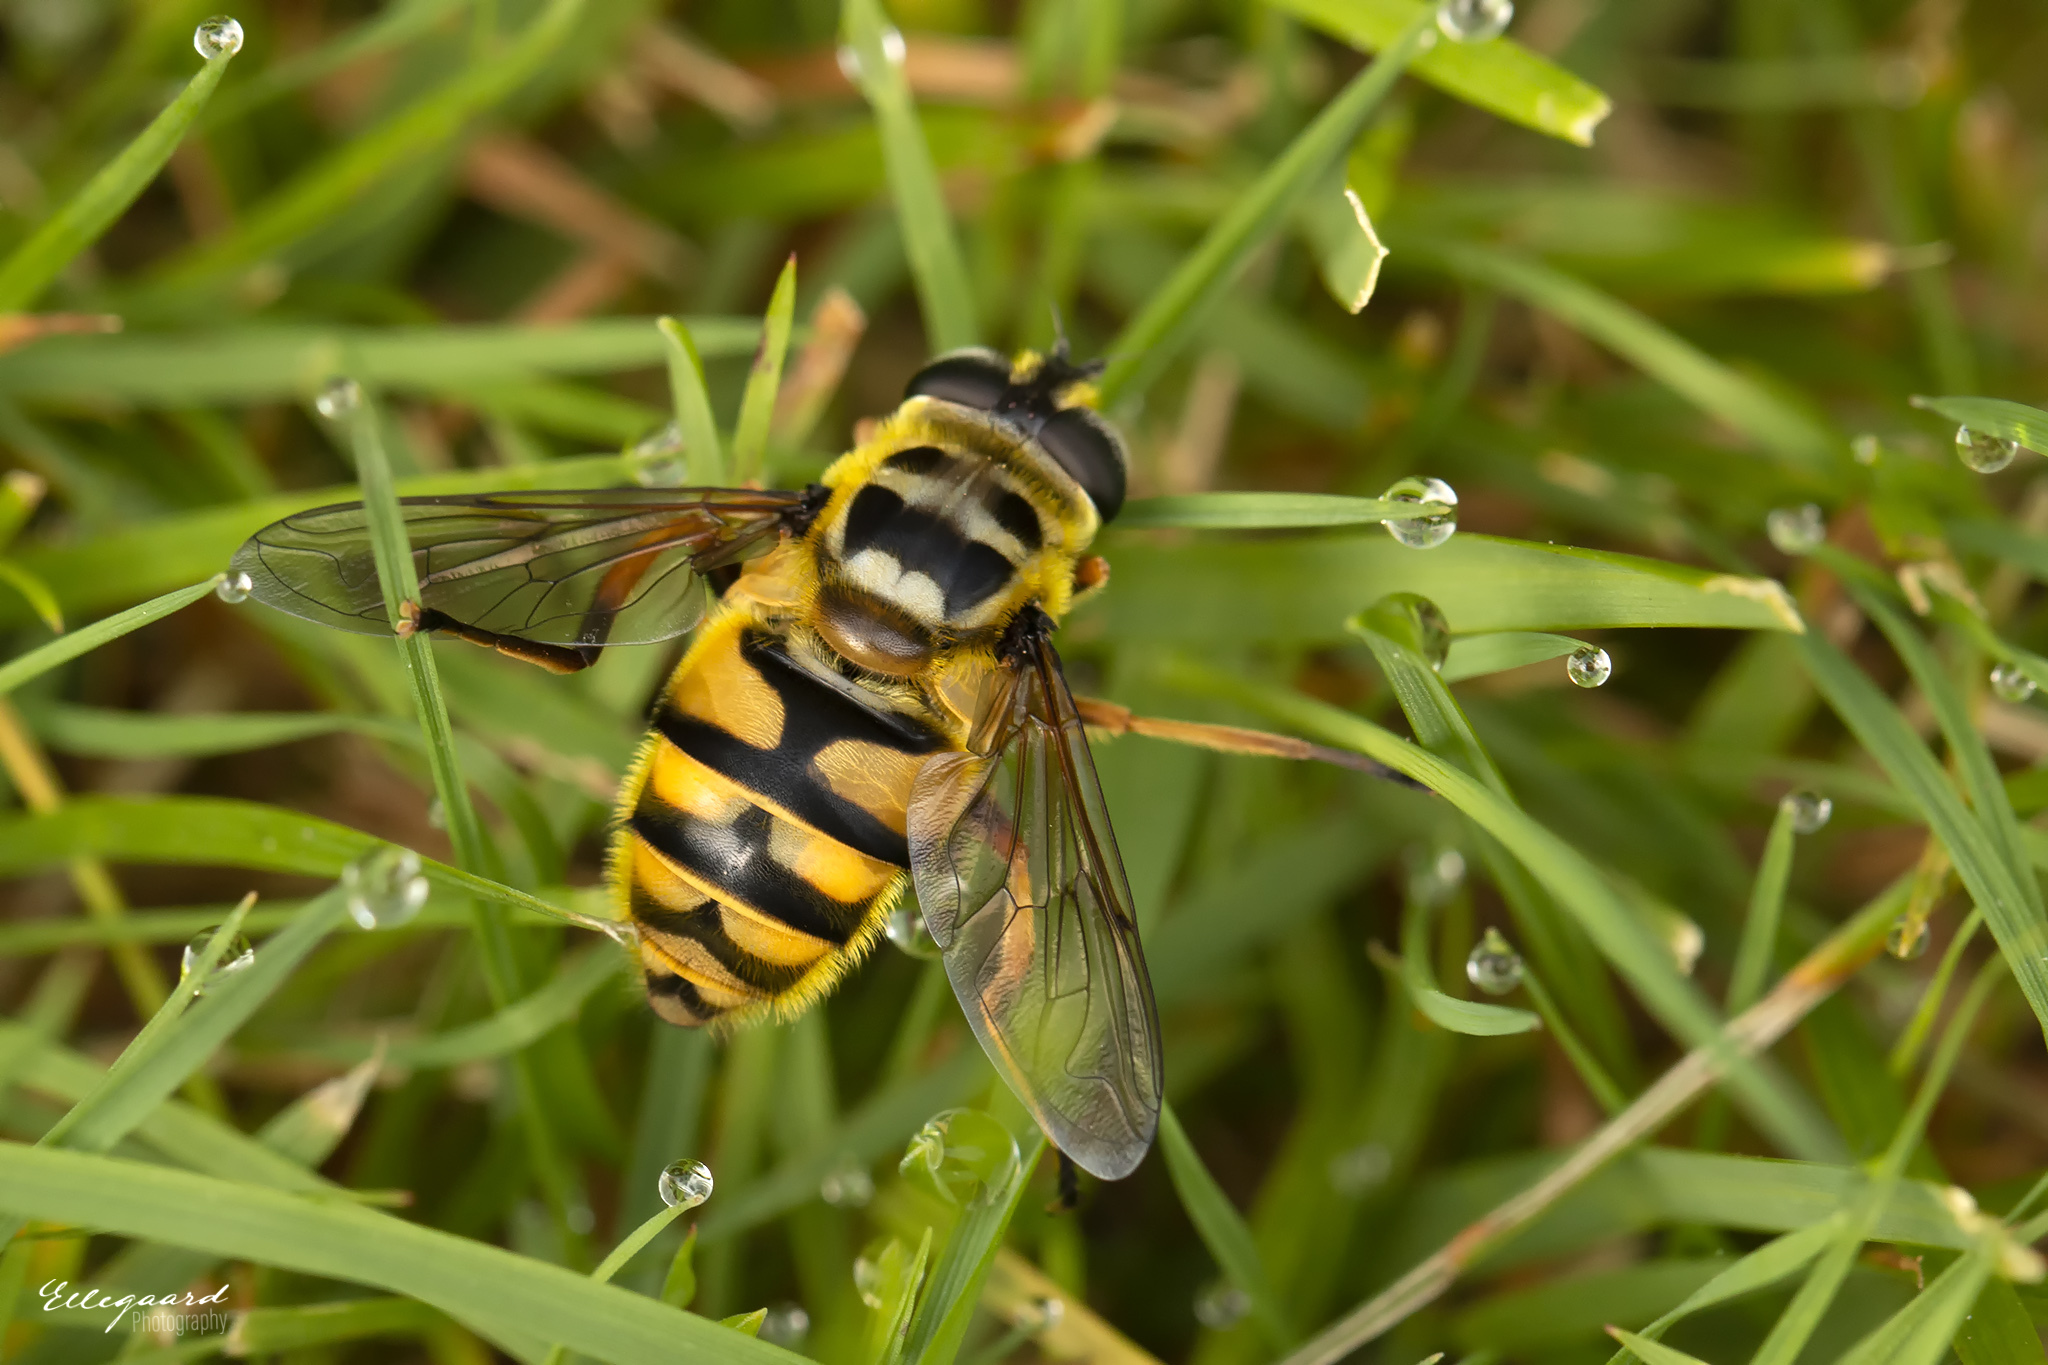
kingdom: Animalia
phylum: Arthropoda
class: Insecta
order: Diptera
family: Syrphidae
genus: Myathropa
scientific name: Myathropa florea
